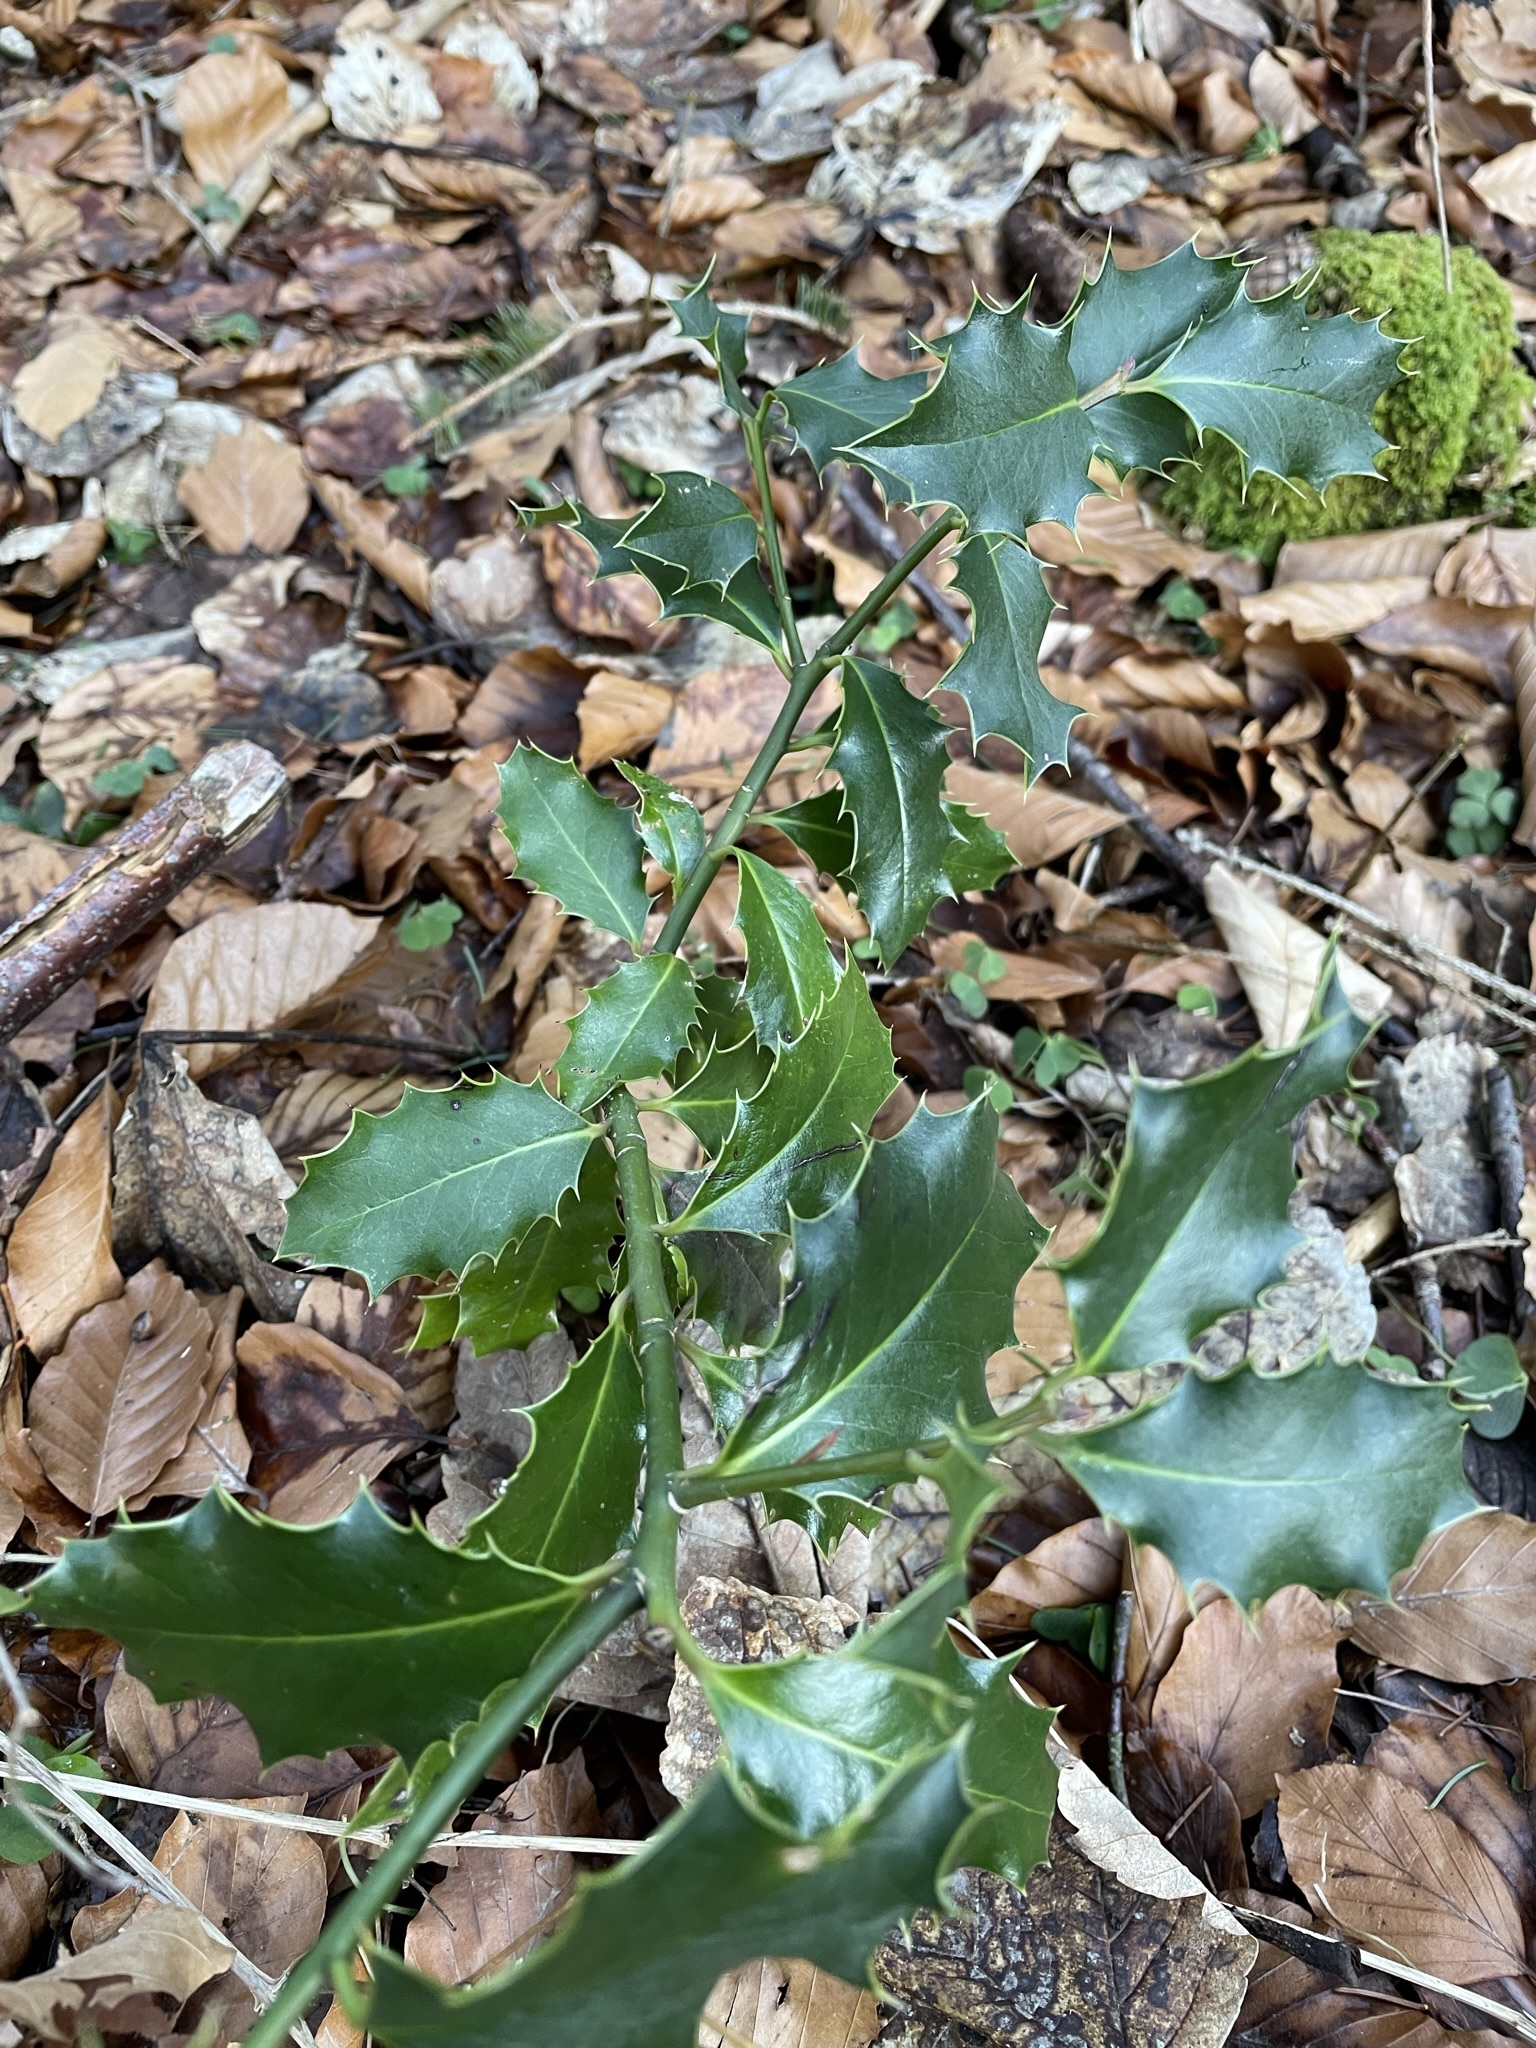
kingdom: Plantae
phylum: Tracheophyta
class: Magnoliopsida
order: Aquifoliales
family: Aquifoliaceae
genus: Ilex
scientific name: Ilex aquifolium
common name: English holly
